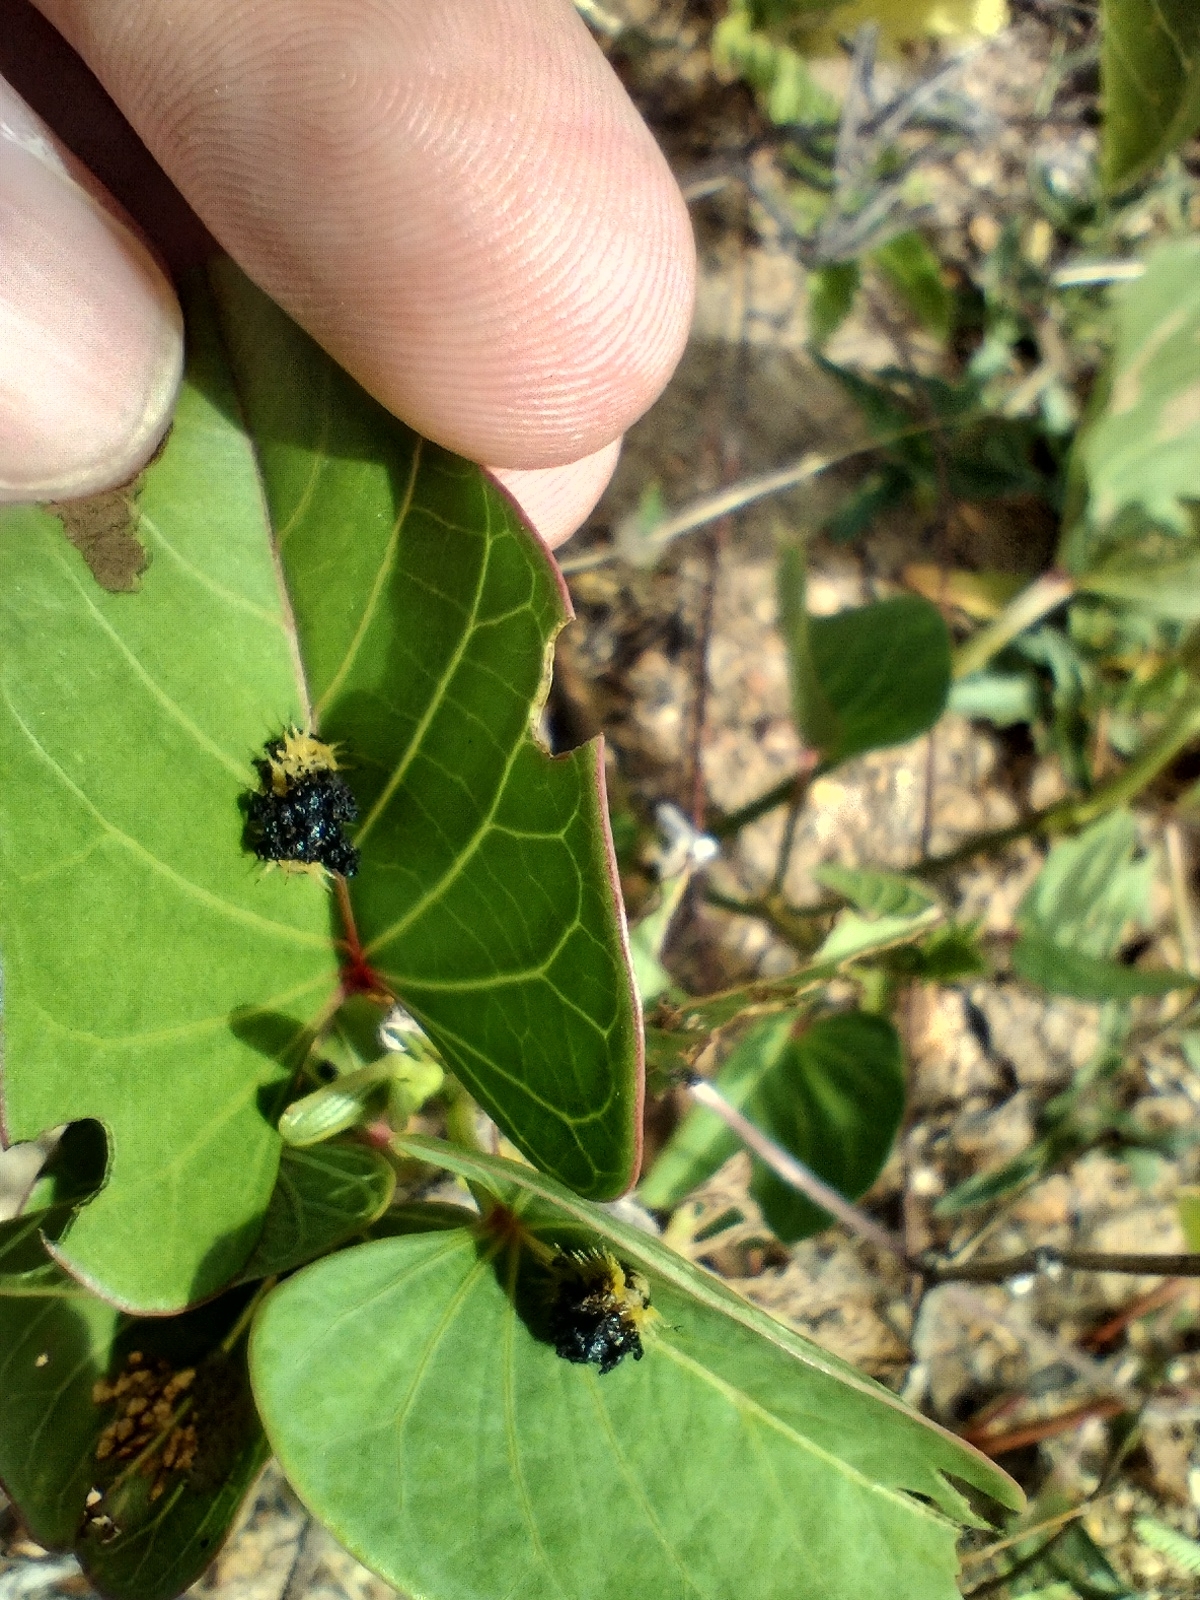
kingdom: Animalia
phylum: Arthropoda
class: Insecta
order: Coleoptera
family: Chrysomelidae
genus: Zatrephina
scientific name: Zatrephina lineata
